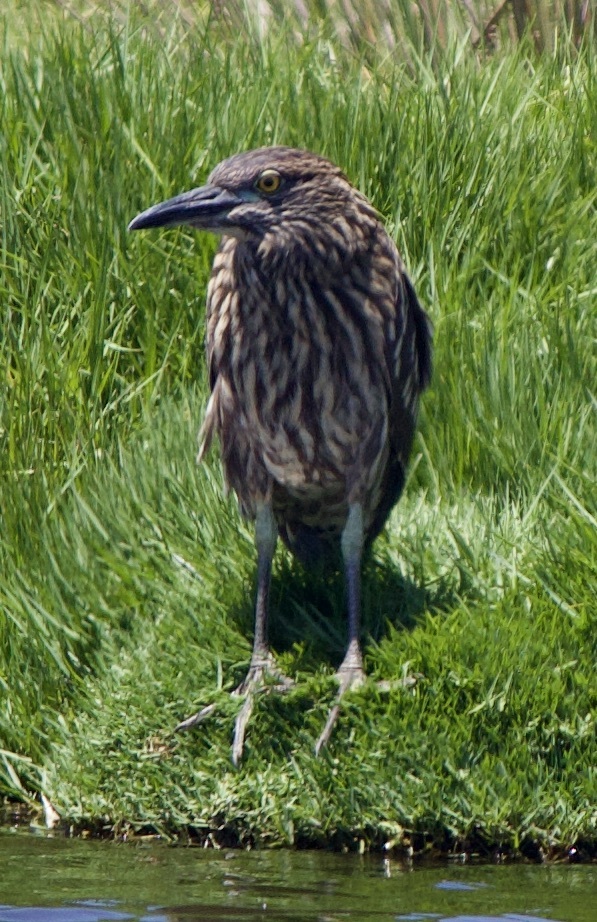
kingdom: Animalia
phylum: Chordata
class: Aves
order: Pelecaniformes
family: Ardeidae
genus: Nycticorax
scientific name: Nycticorax nycticorax
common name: Black-crowned night heron
